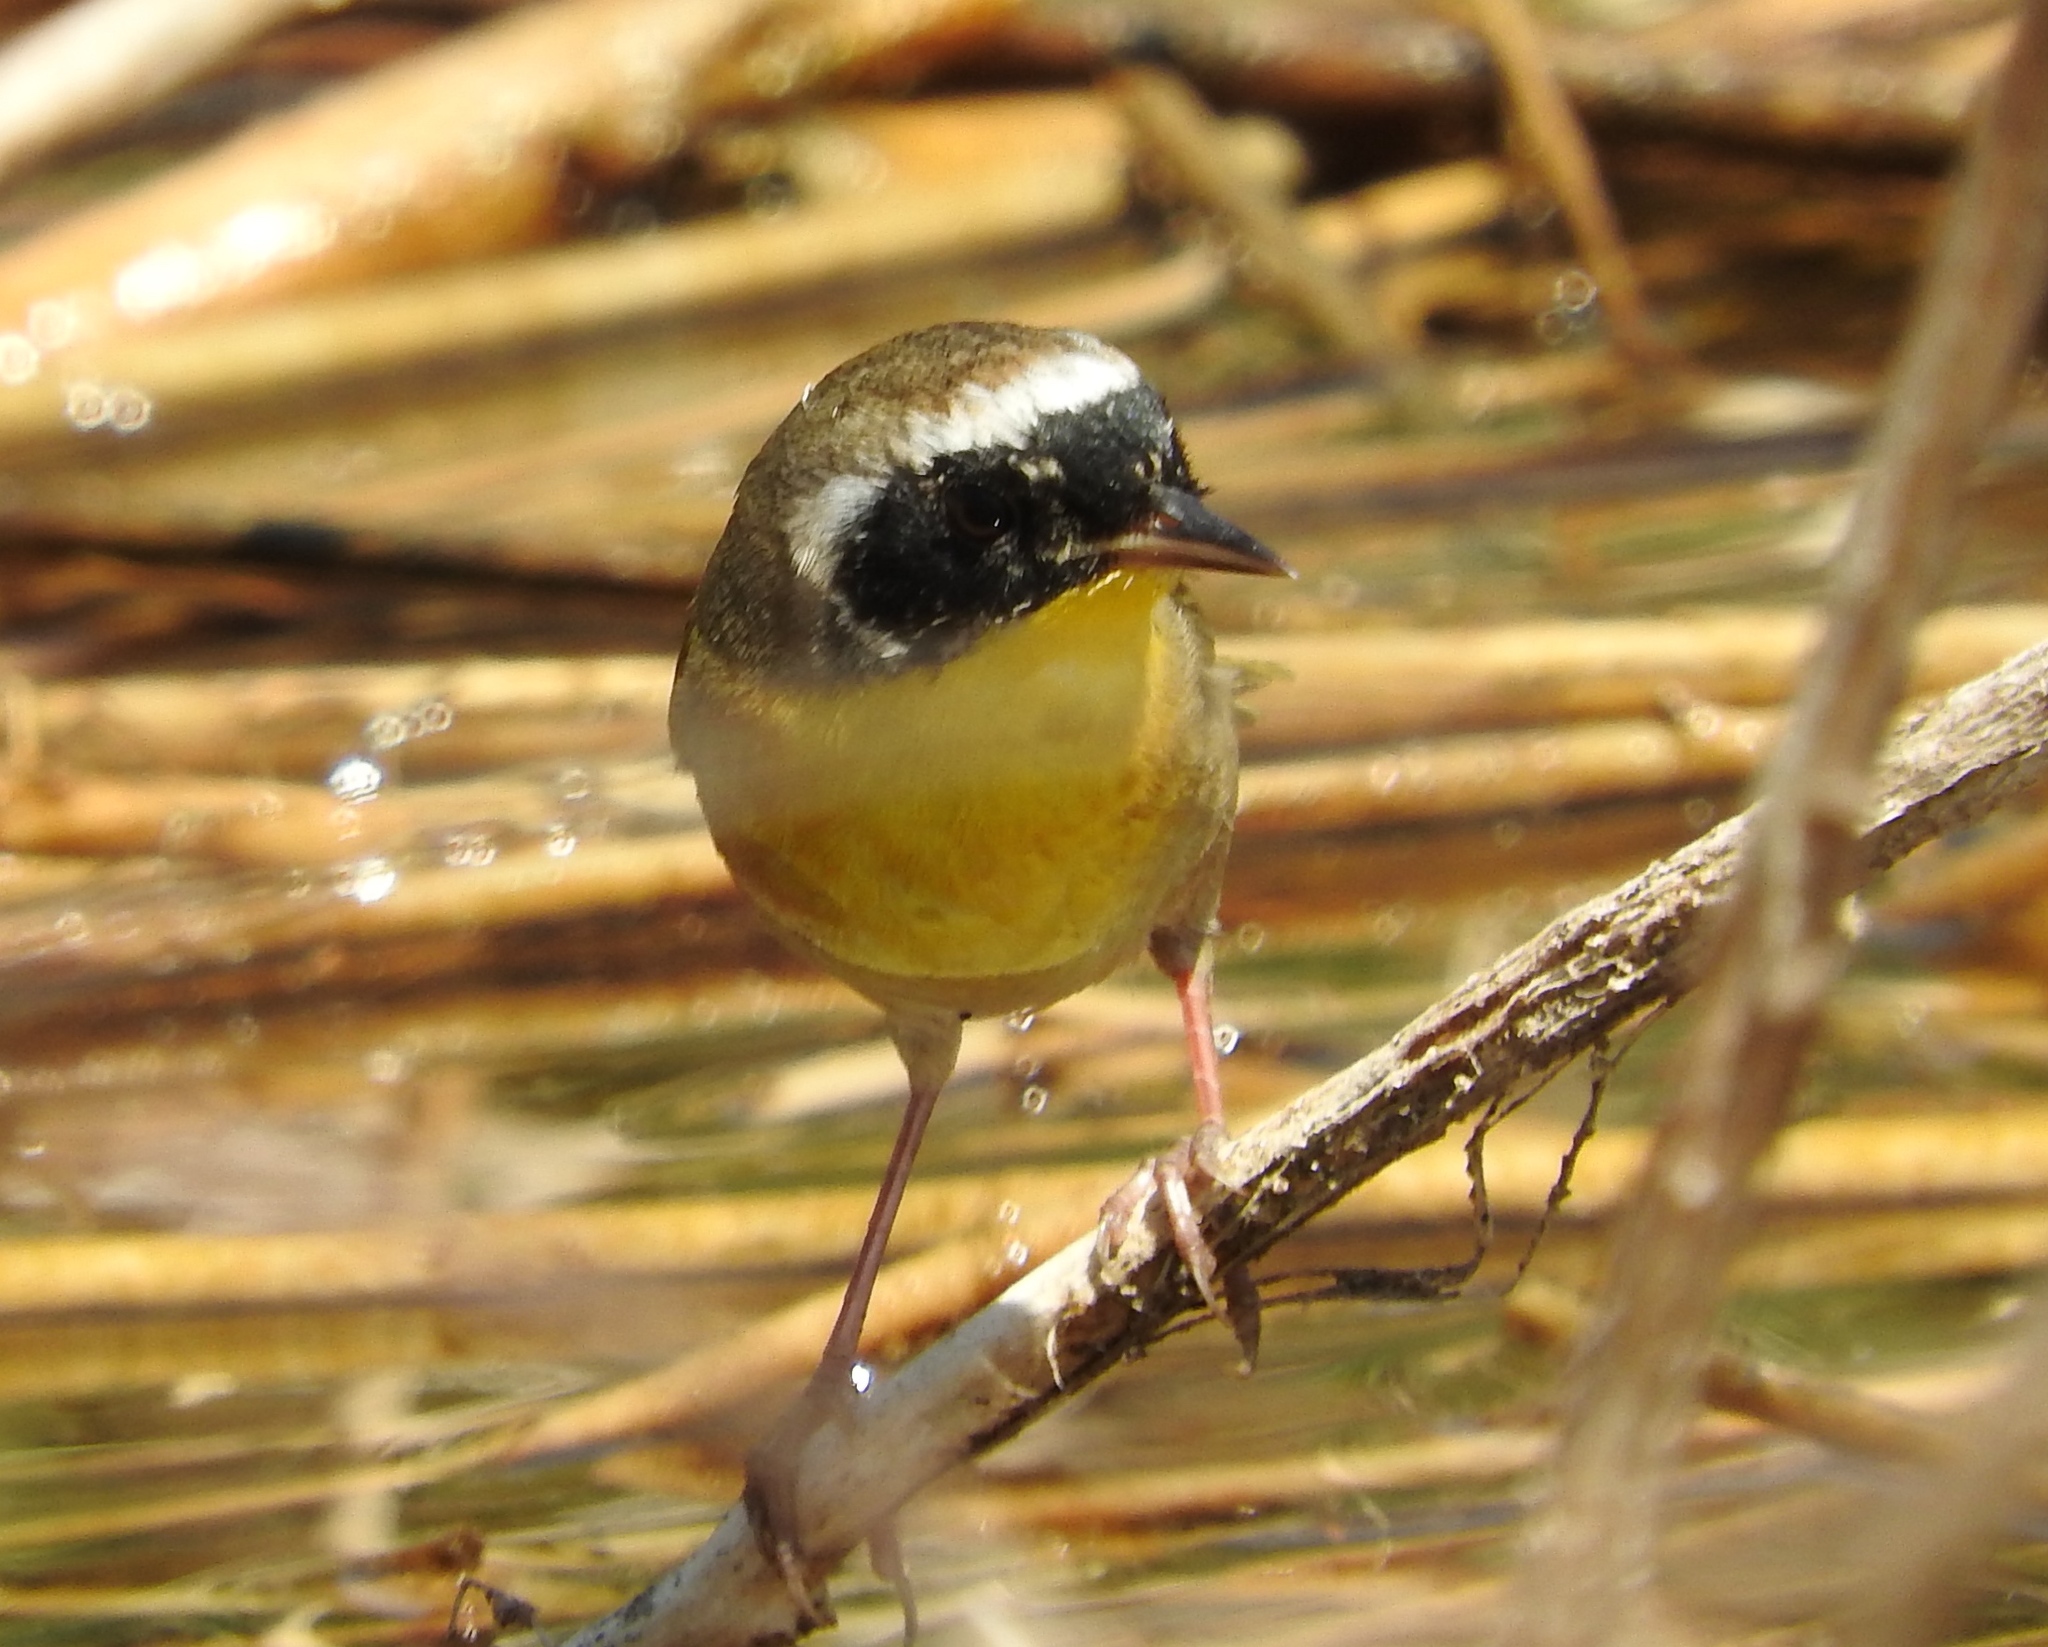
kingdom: Animalia
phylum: Chordata
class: Aves
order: Passeriformes
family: Parulidae
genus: Geothlypis
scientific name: Geothlypis trichas
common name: Common yellowthroat
